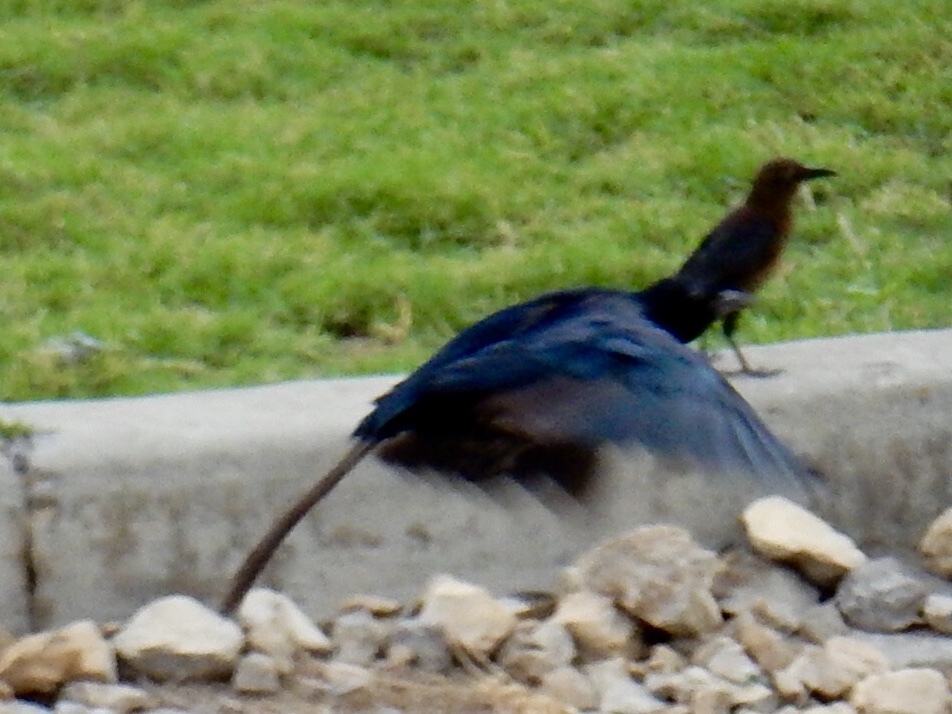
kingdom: Animalia
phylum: Chordata
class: Aves
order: Passeriformes
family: Icteridae
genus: Quiscalus
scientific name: Quiscalus mexicanus
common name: Great-tailed grackle
